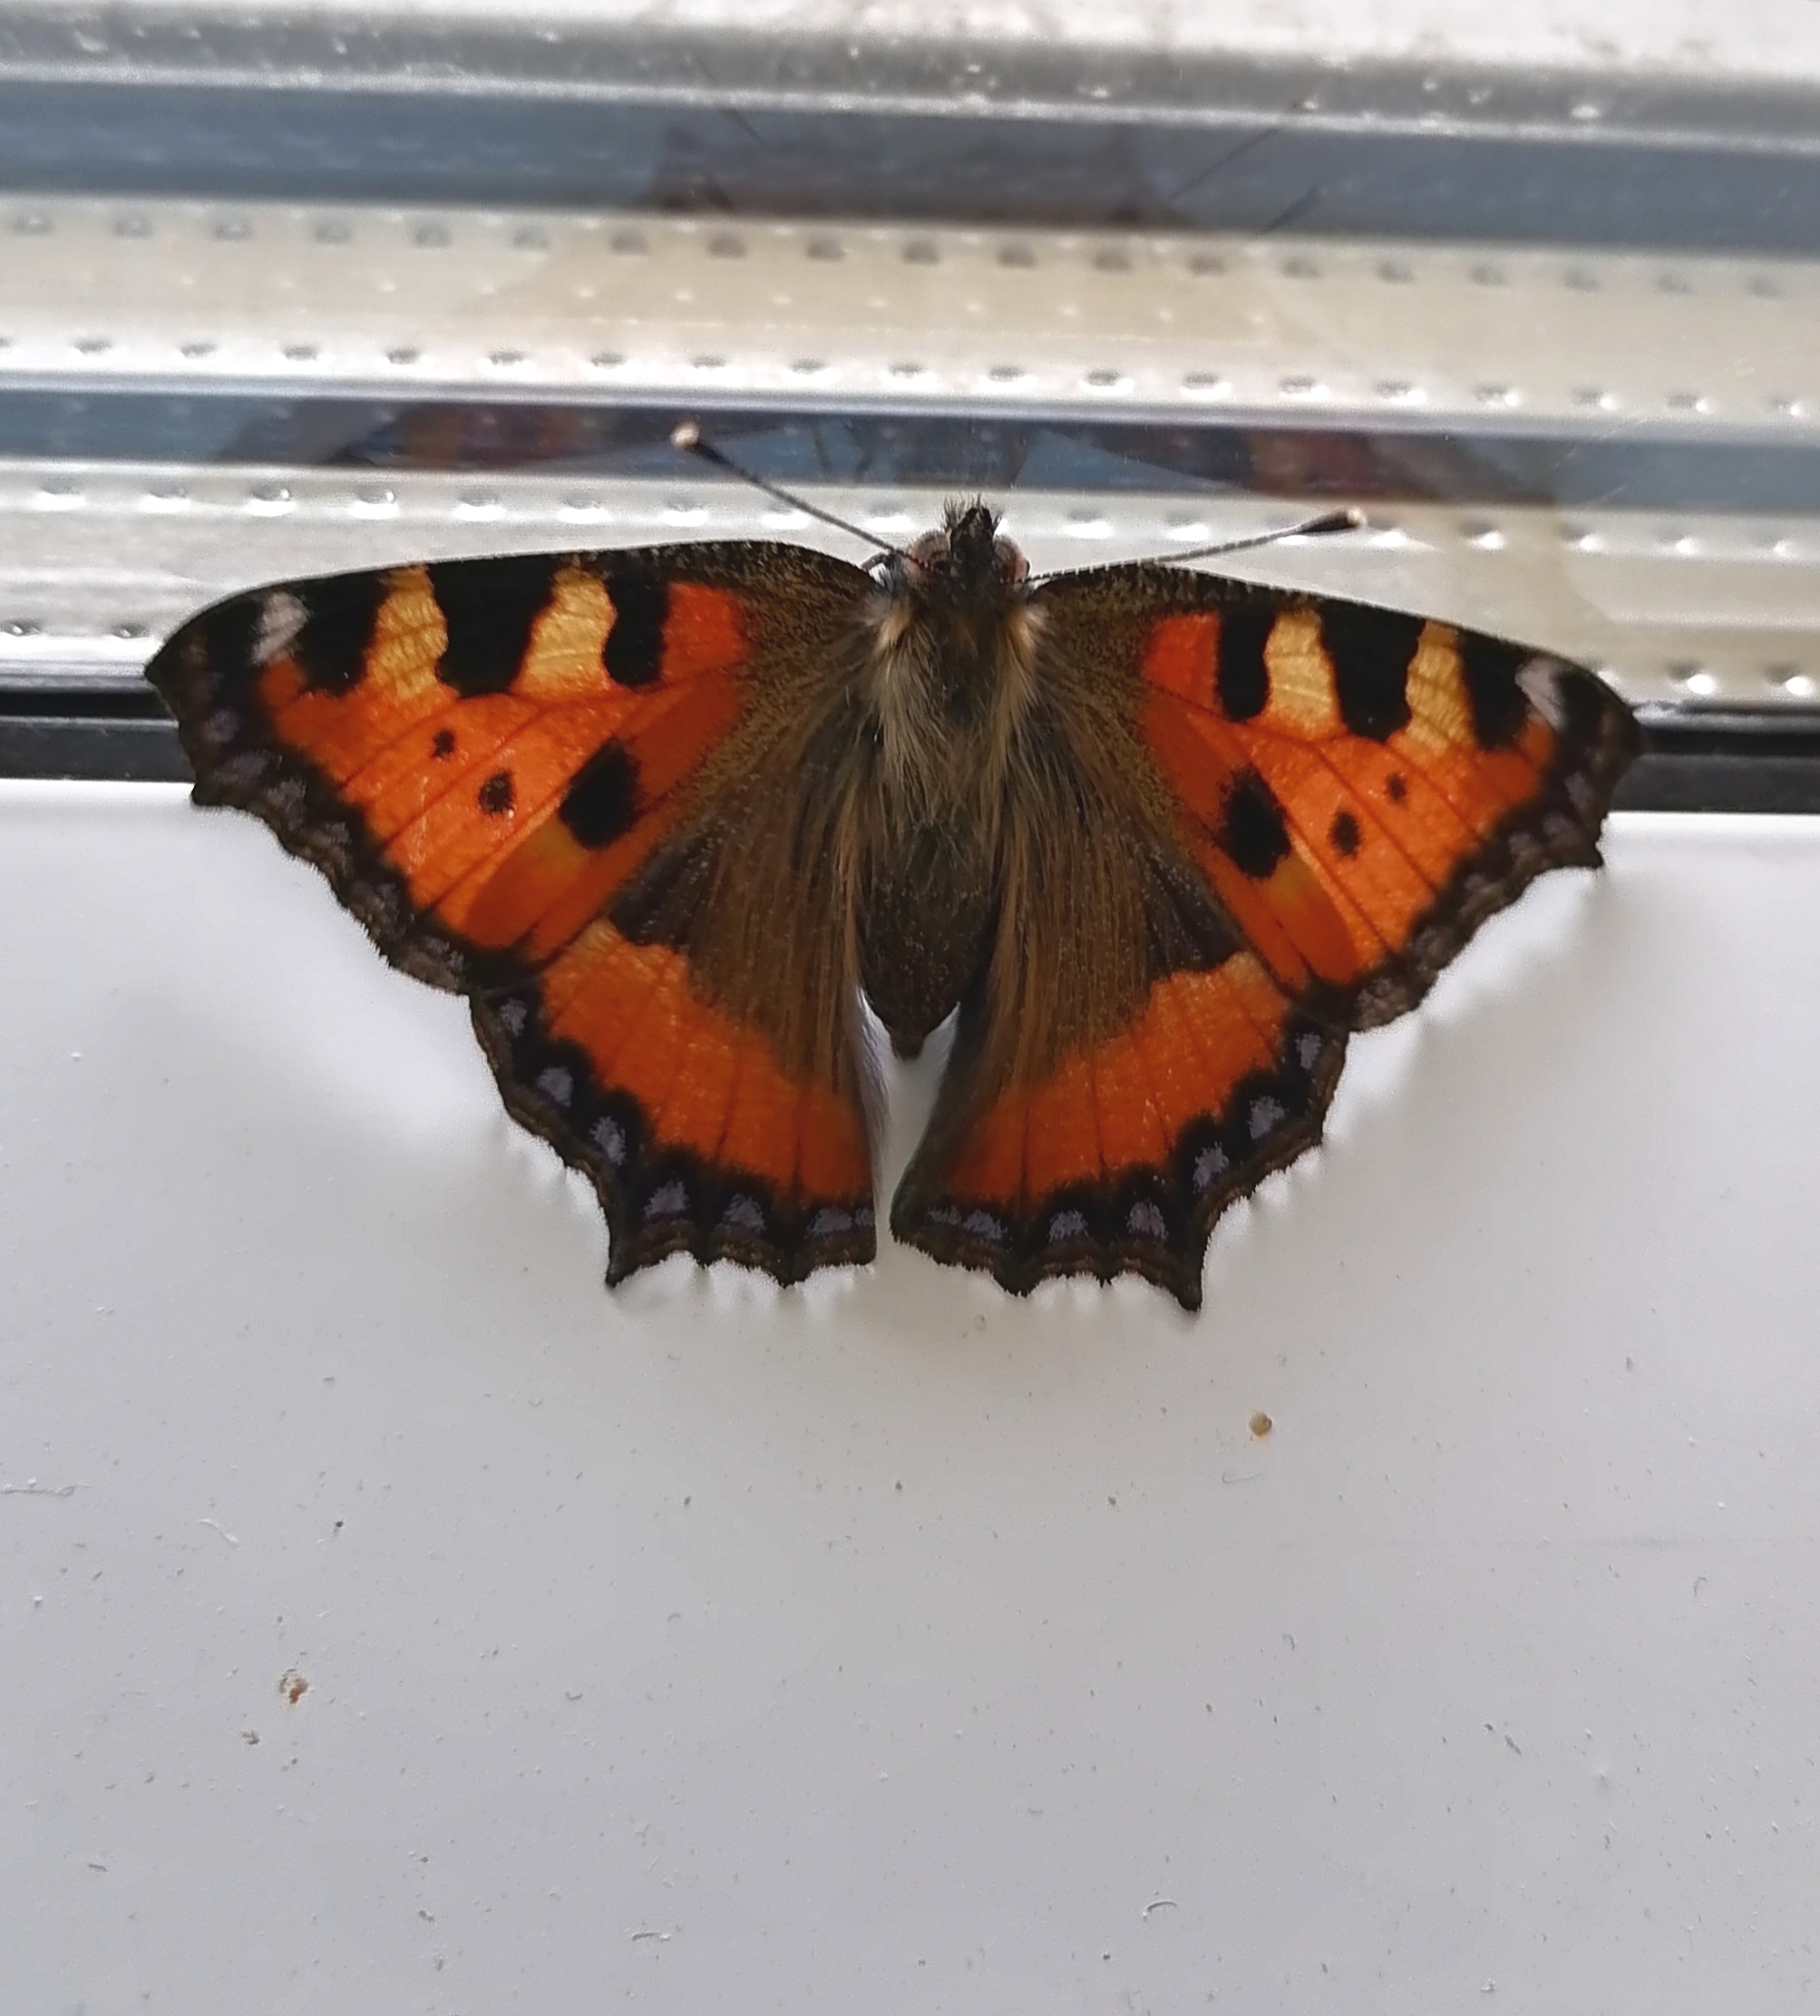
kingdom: Animalia
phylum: Arthropoda
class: Insecta
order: Lepidoptera
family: Nymphalidae
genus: Aglais
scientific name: Aglais urticae
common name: Small tortoiseshell
